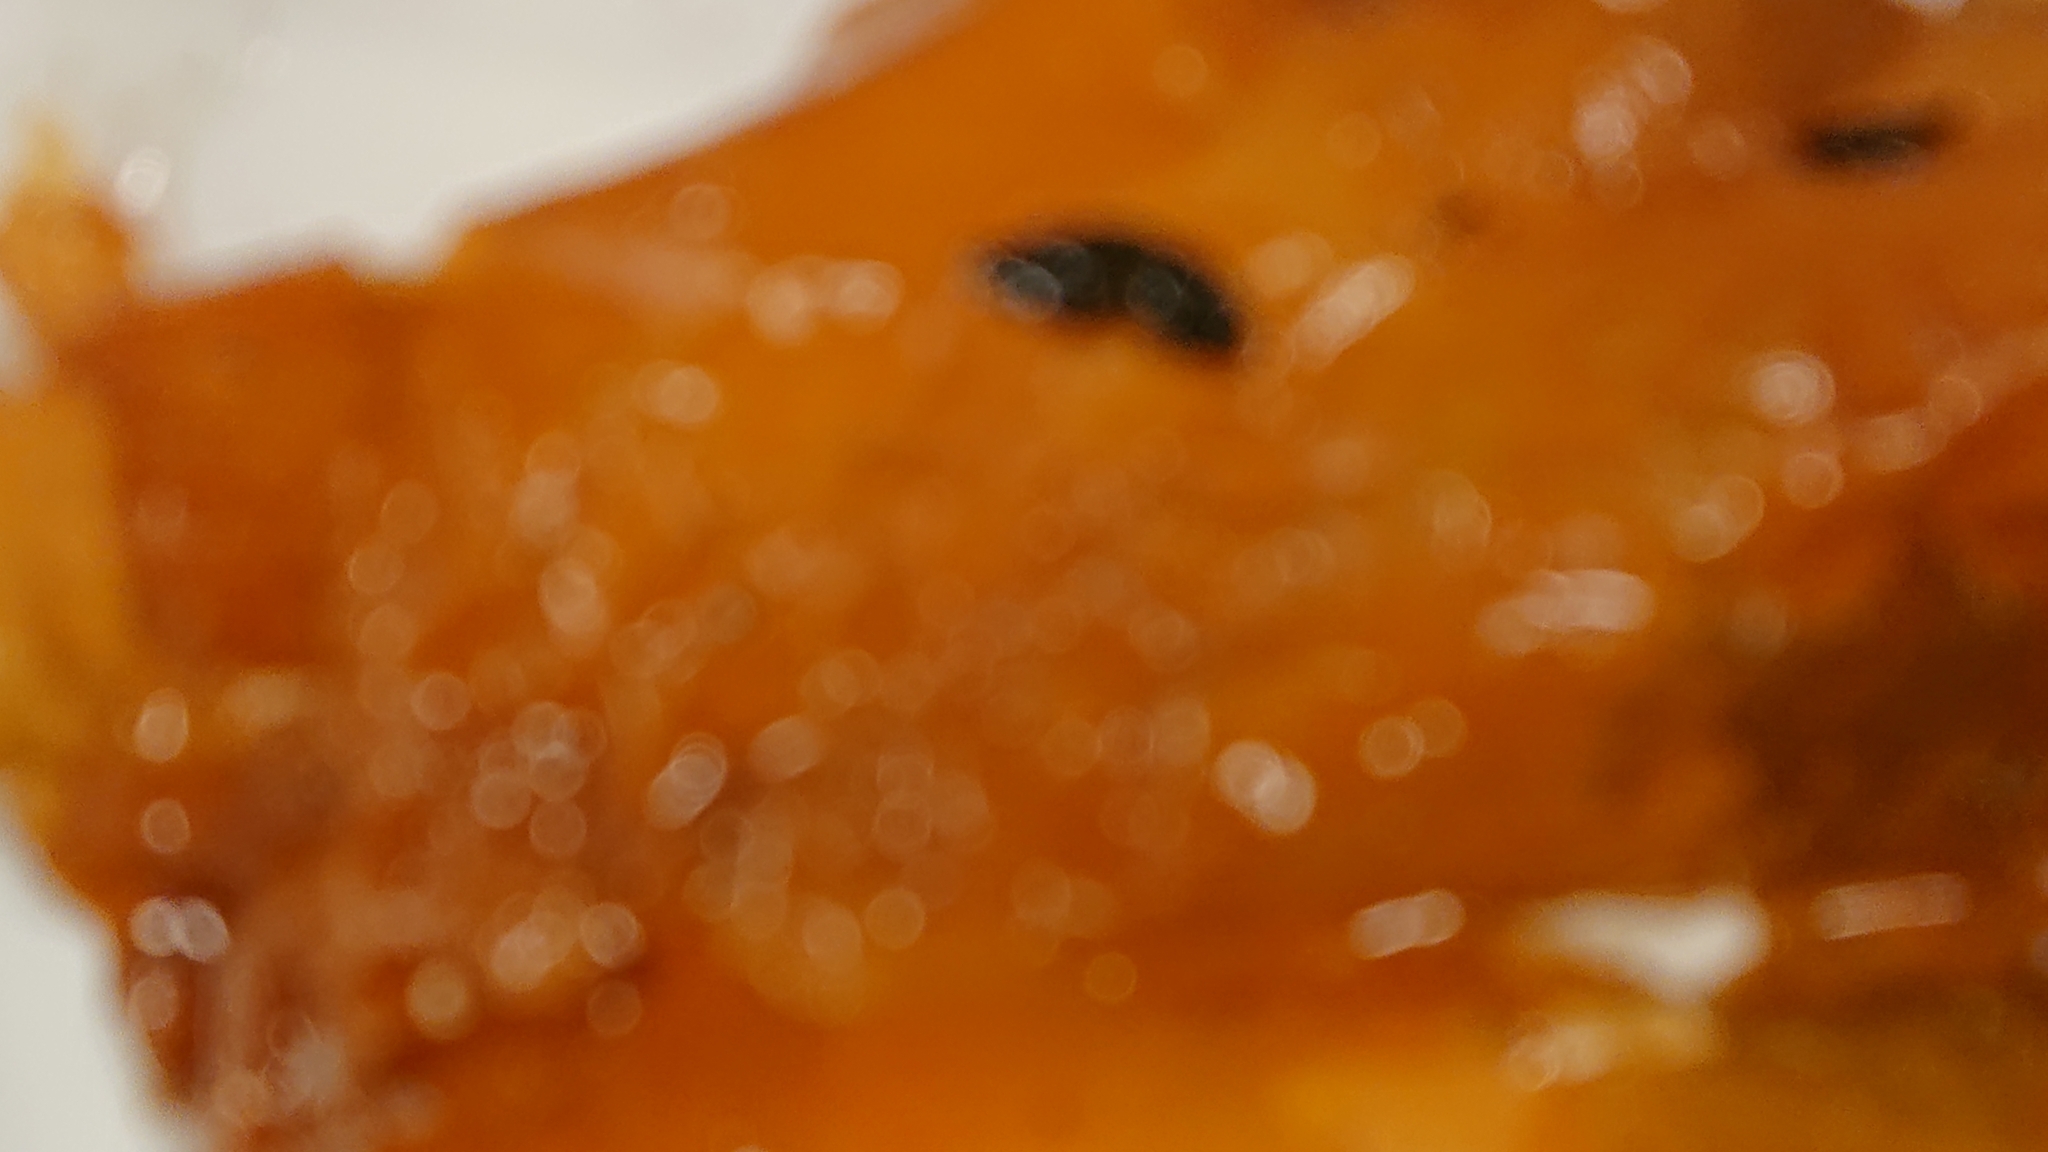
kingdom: Chromista
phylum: Ochrophyta
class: Phaeophyceae
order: Laminariales
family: Laminariaceae
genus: Saccharina
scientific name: Saccharina latissima
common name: Poor man's weather glass
